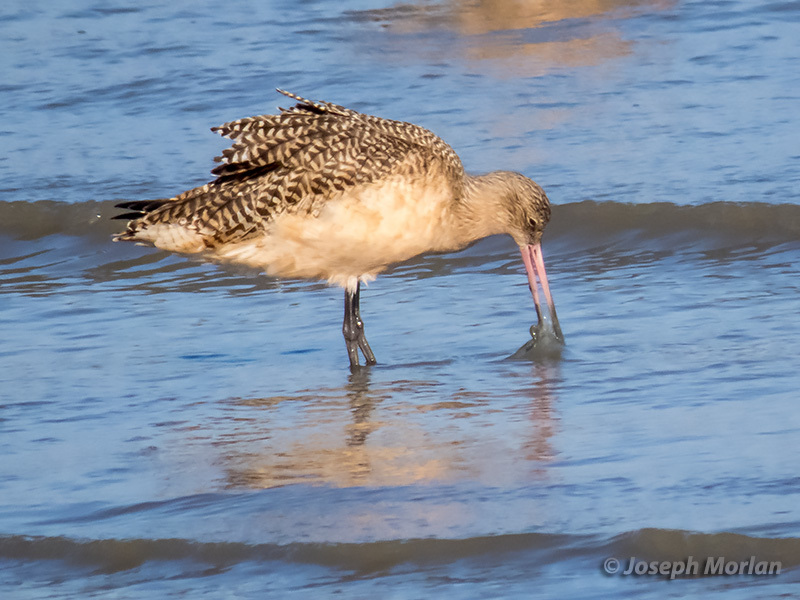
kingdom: Animalia
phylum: Chordata
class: Aves
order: Charadriiformes
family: Scolopacidae
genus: Limosa
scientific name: Limosa fedoa
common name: Marbled godwit
